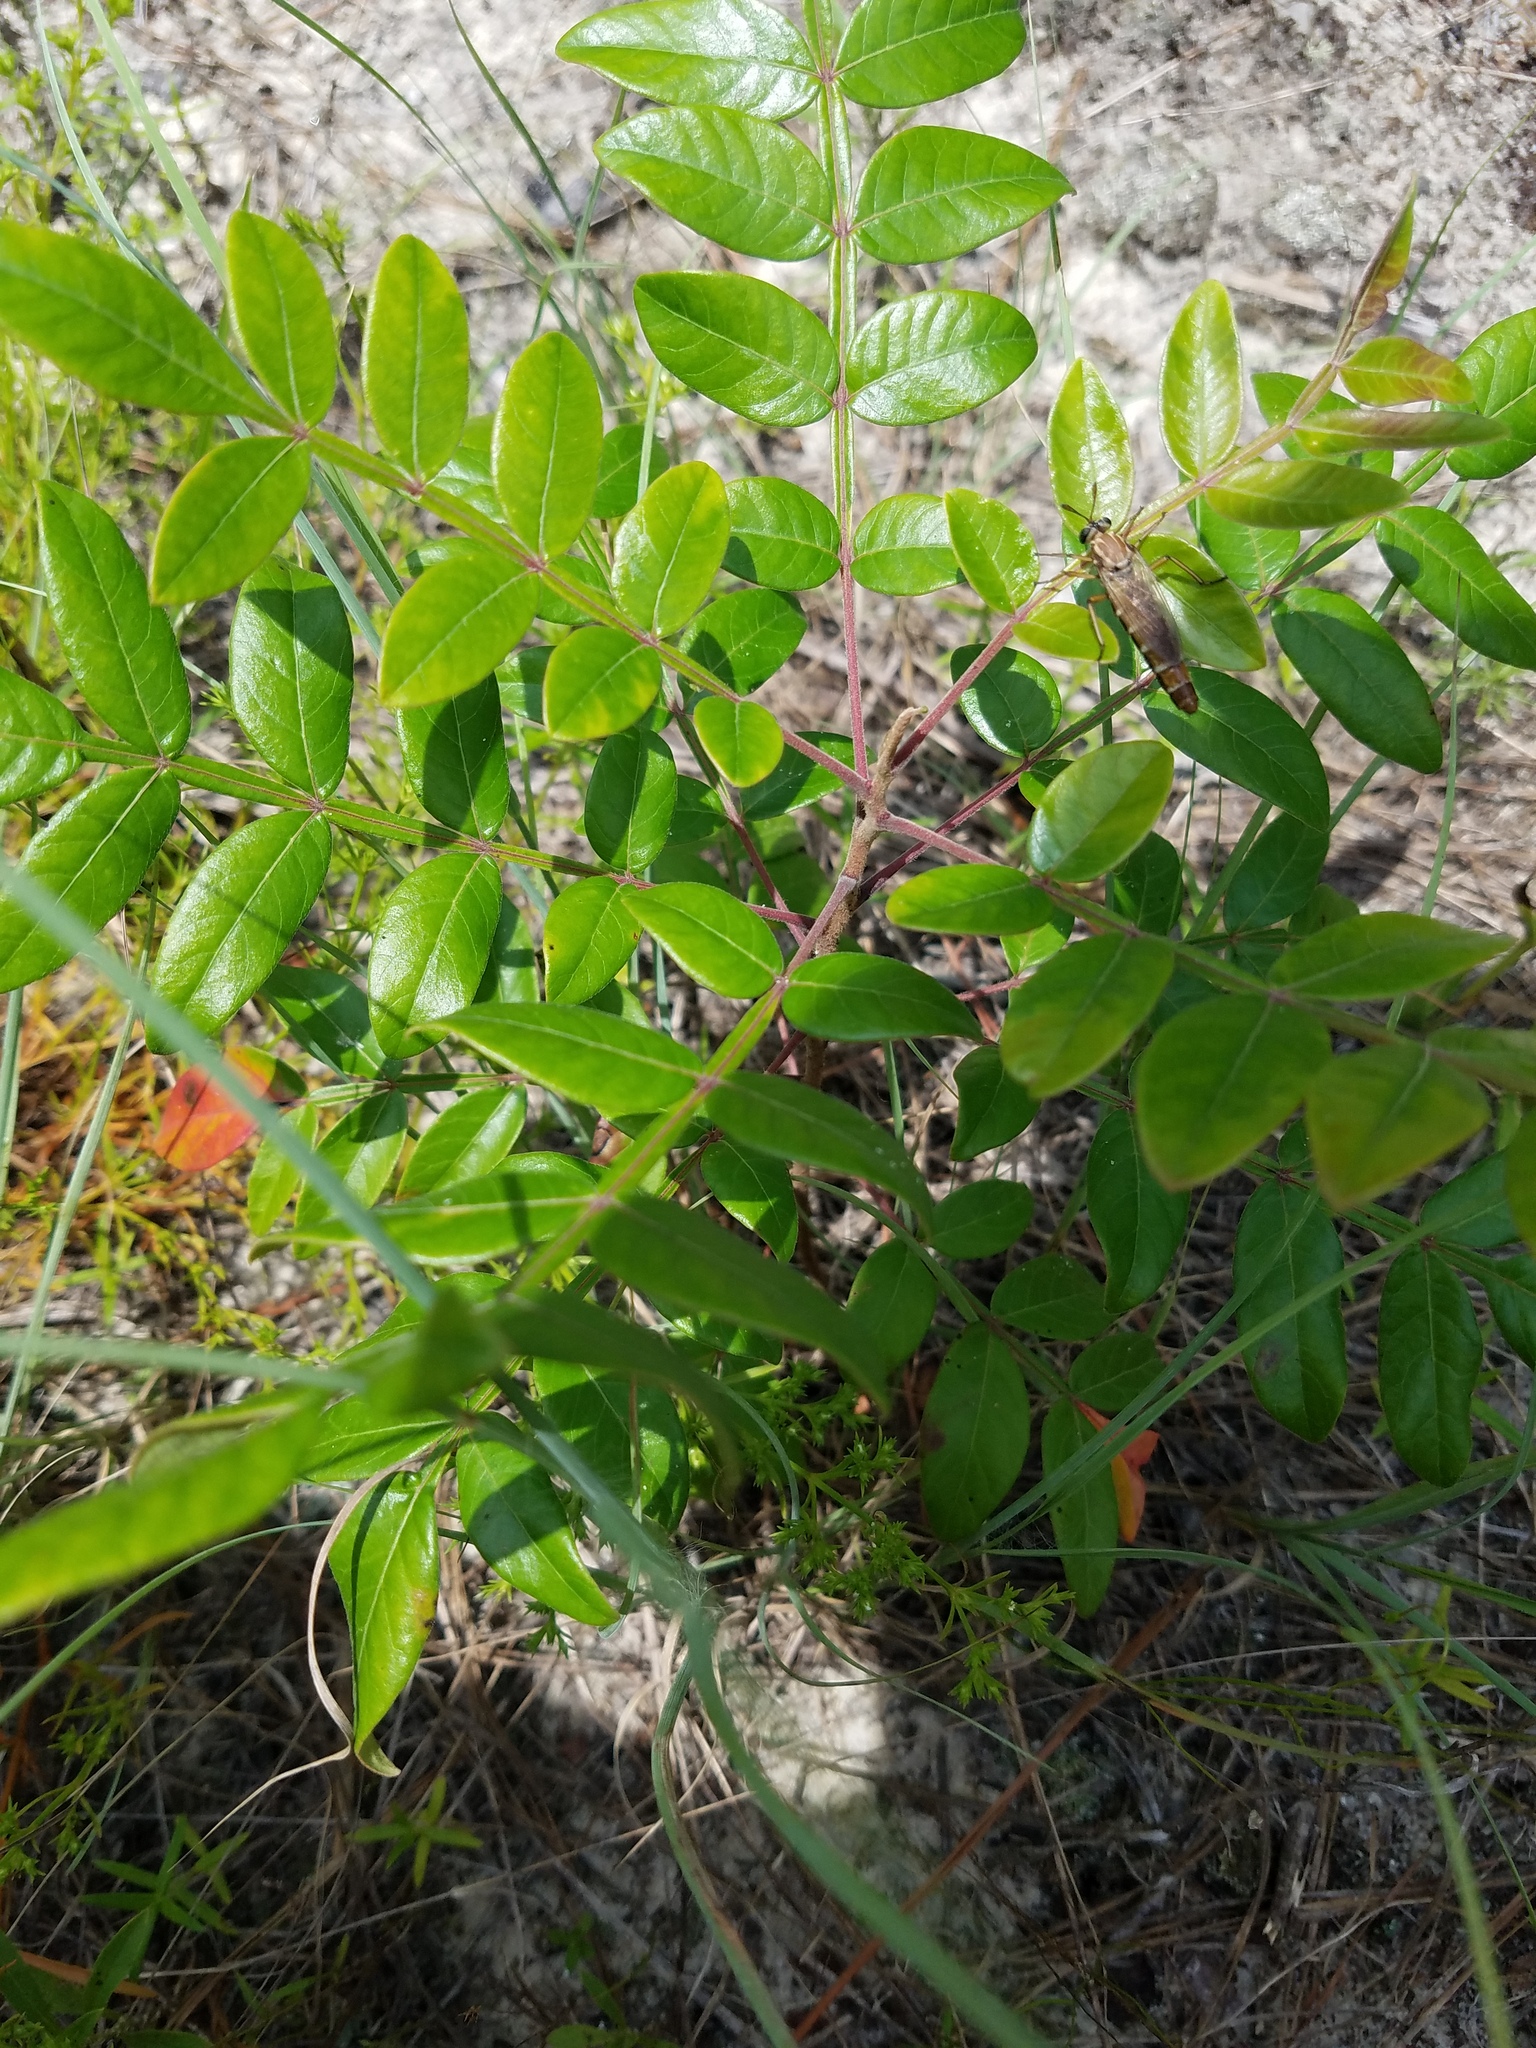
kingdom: Plantae
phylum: Tracheophyta
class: Magnoliopsida
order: Sapindales
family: Anacardiaceae
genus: Rhus
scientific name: Rhus copallina
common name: Shining sumac
